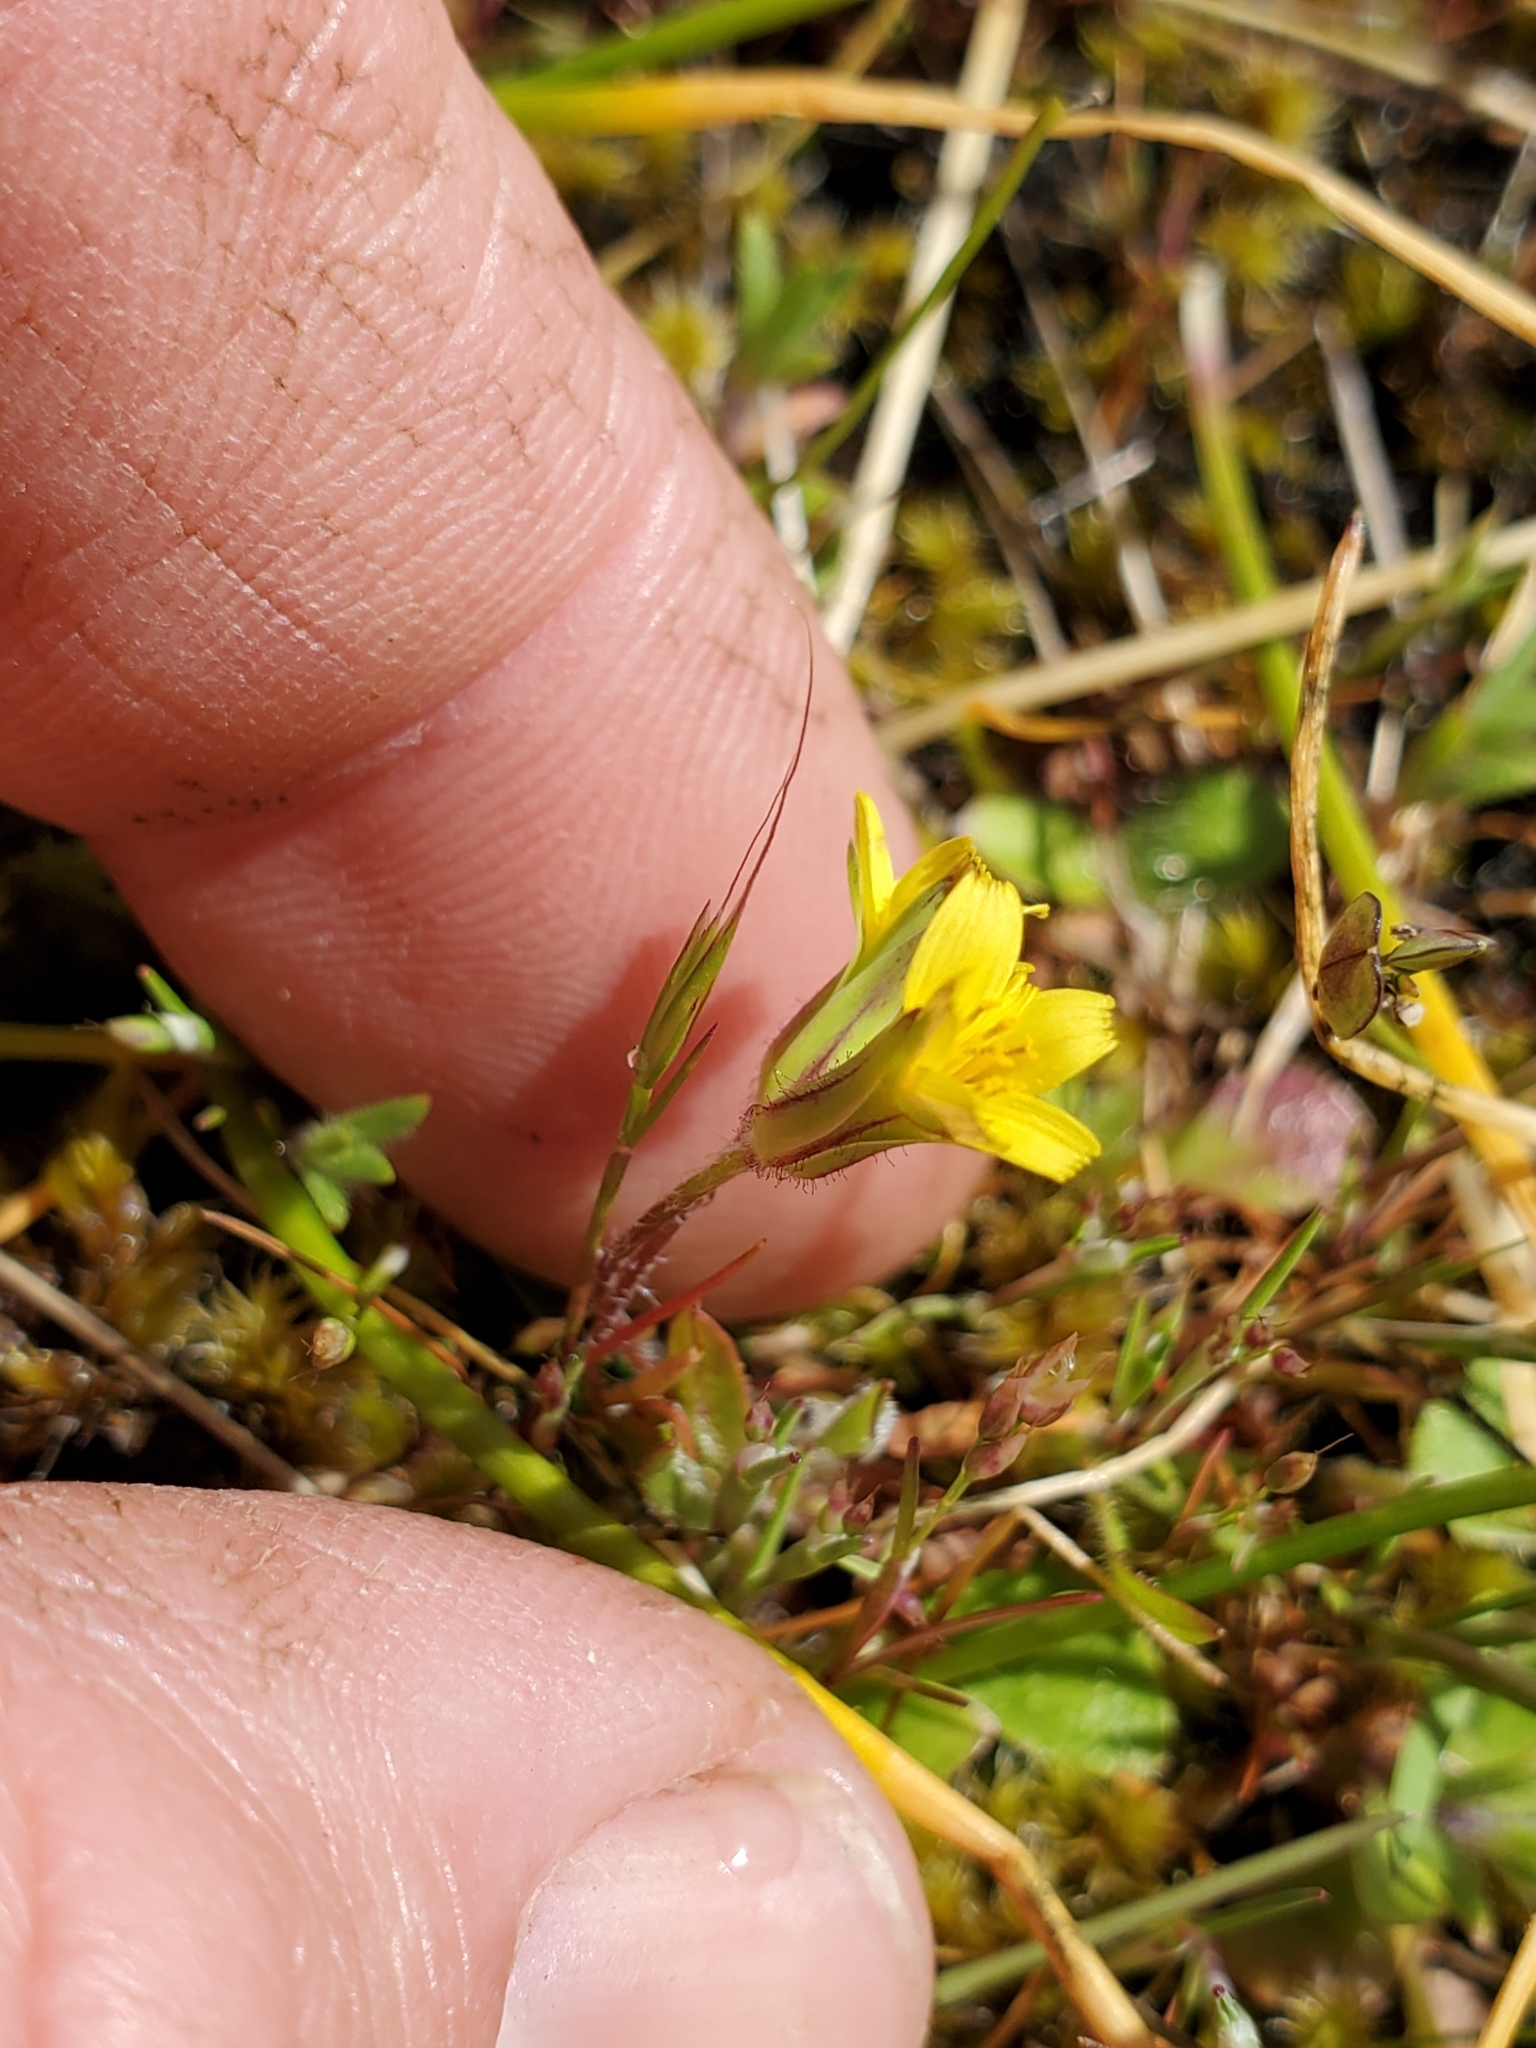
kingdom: Plantae
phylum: Tracheophyta
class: Magnoliopsida
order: Asterales
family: Asteraceae
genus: Agoseris
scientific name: Agoseris heterophylla
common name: Annual agoseris
